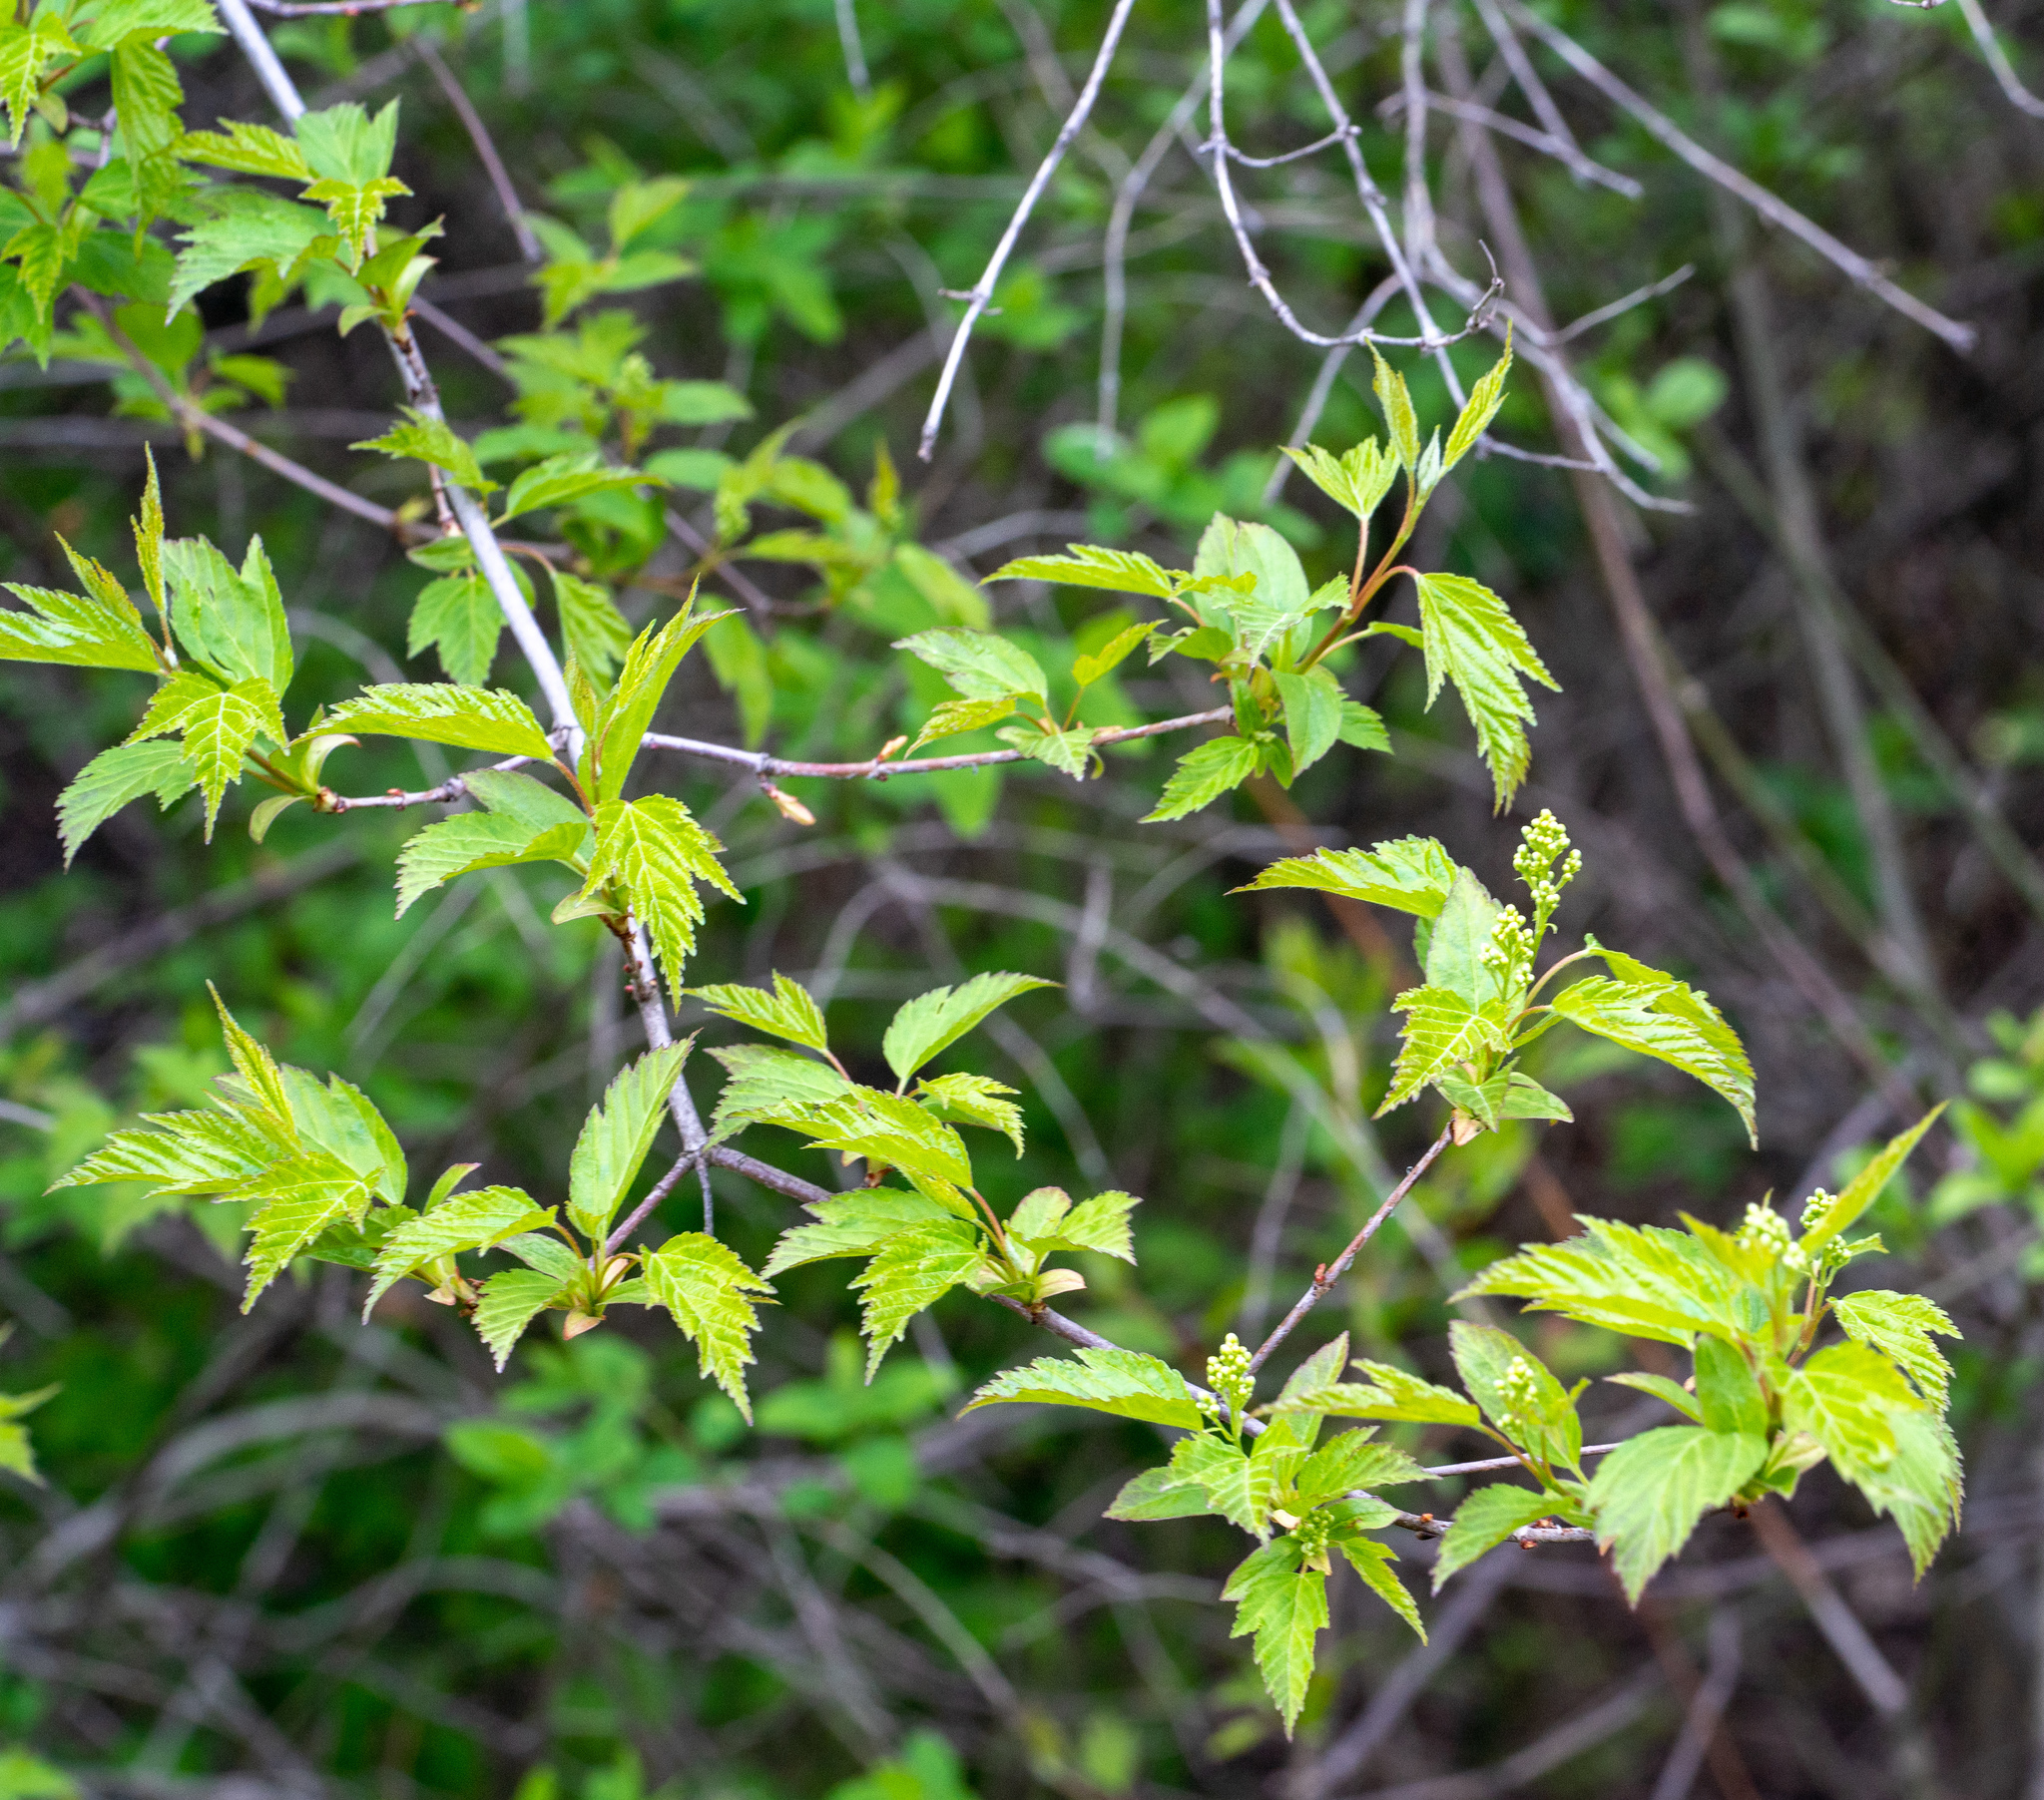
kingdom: Plantae
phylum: Tracheophyta
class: Magnoliopsida
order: Sapindales
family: Sapindaceae
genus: Acer
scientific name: Acer tataricum
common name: Tartar maple
